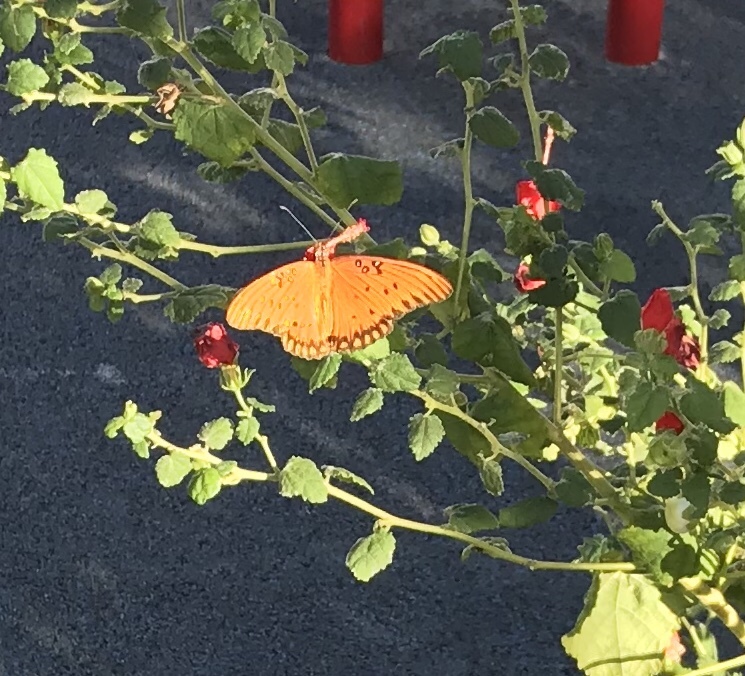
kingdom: Animalia
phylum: Arthropoda
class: Insecta
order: Lepidoptera
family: Nymphalidae
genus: Dione
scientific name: Dione vanillae
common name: Gulf fritillary
